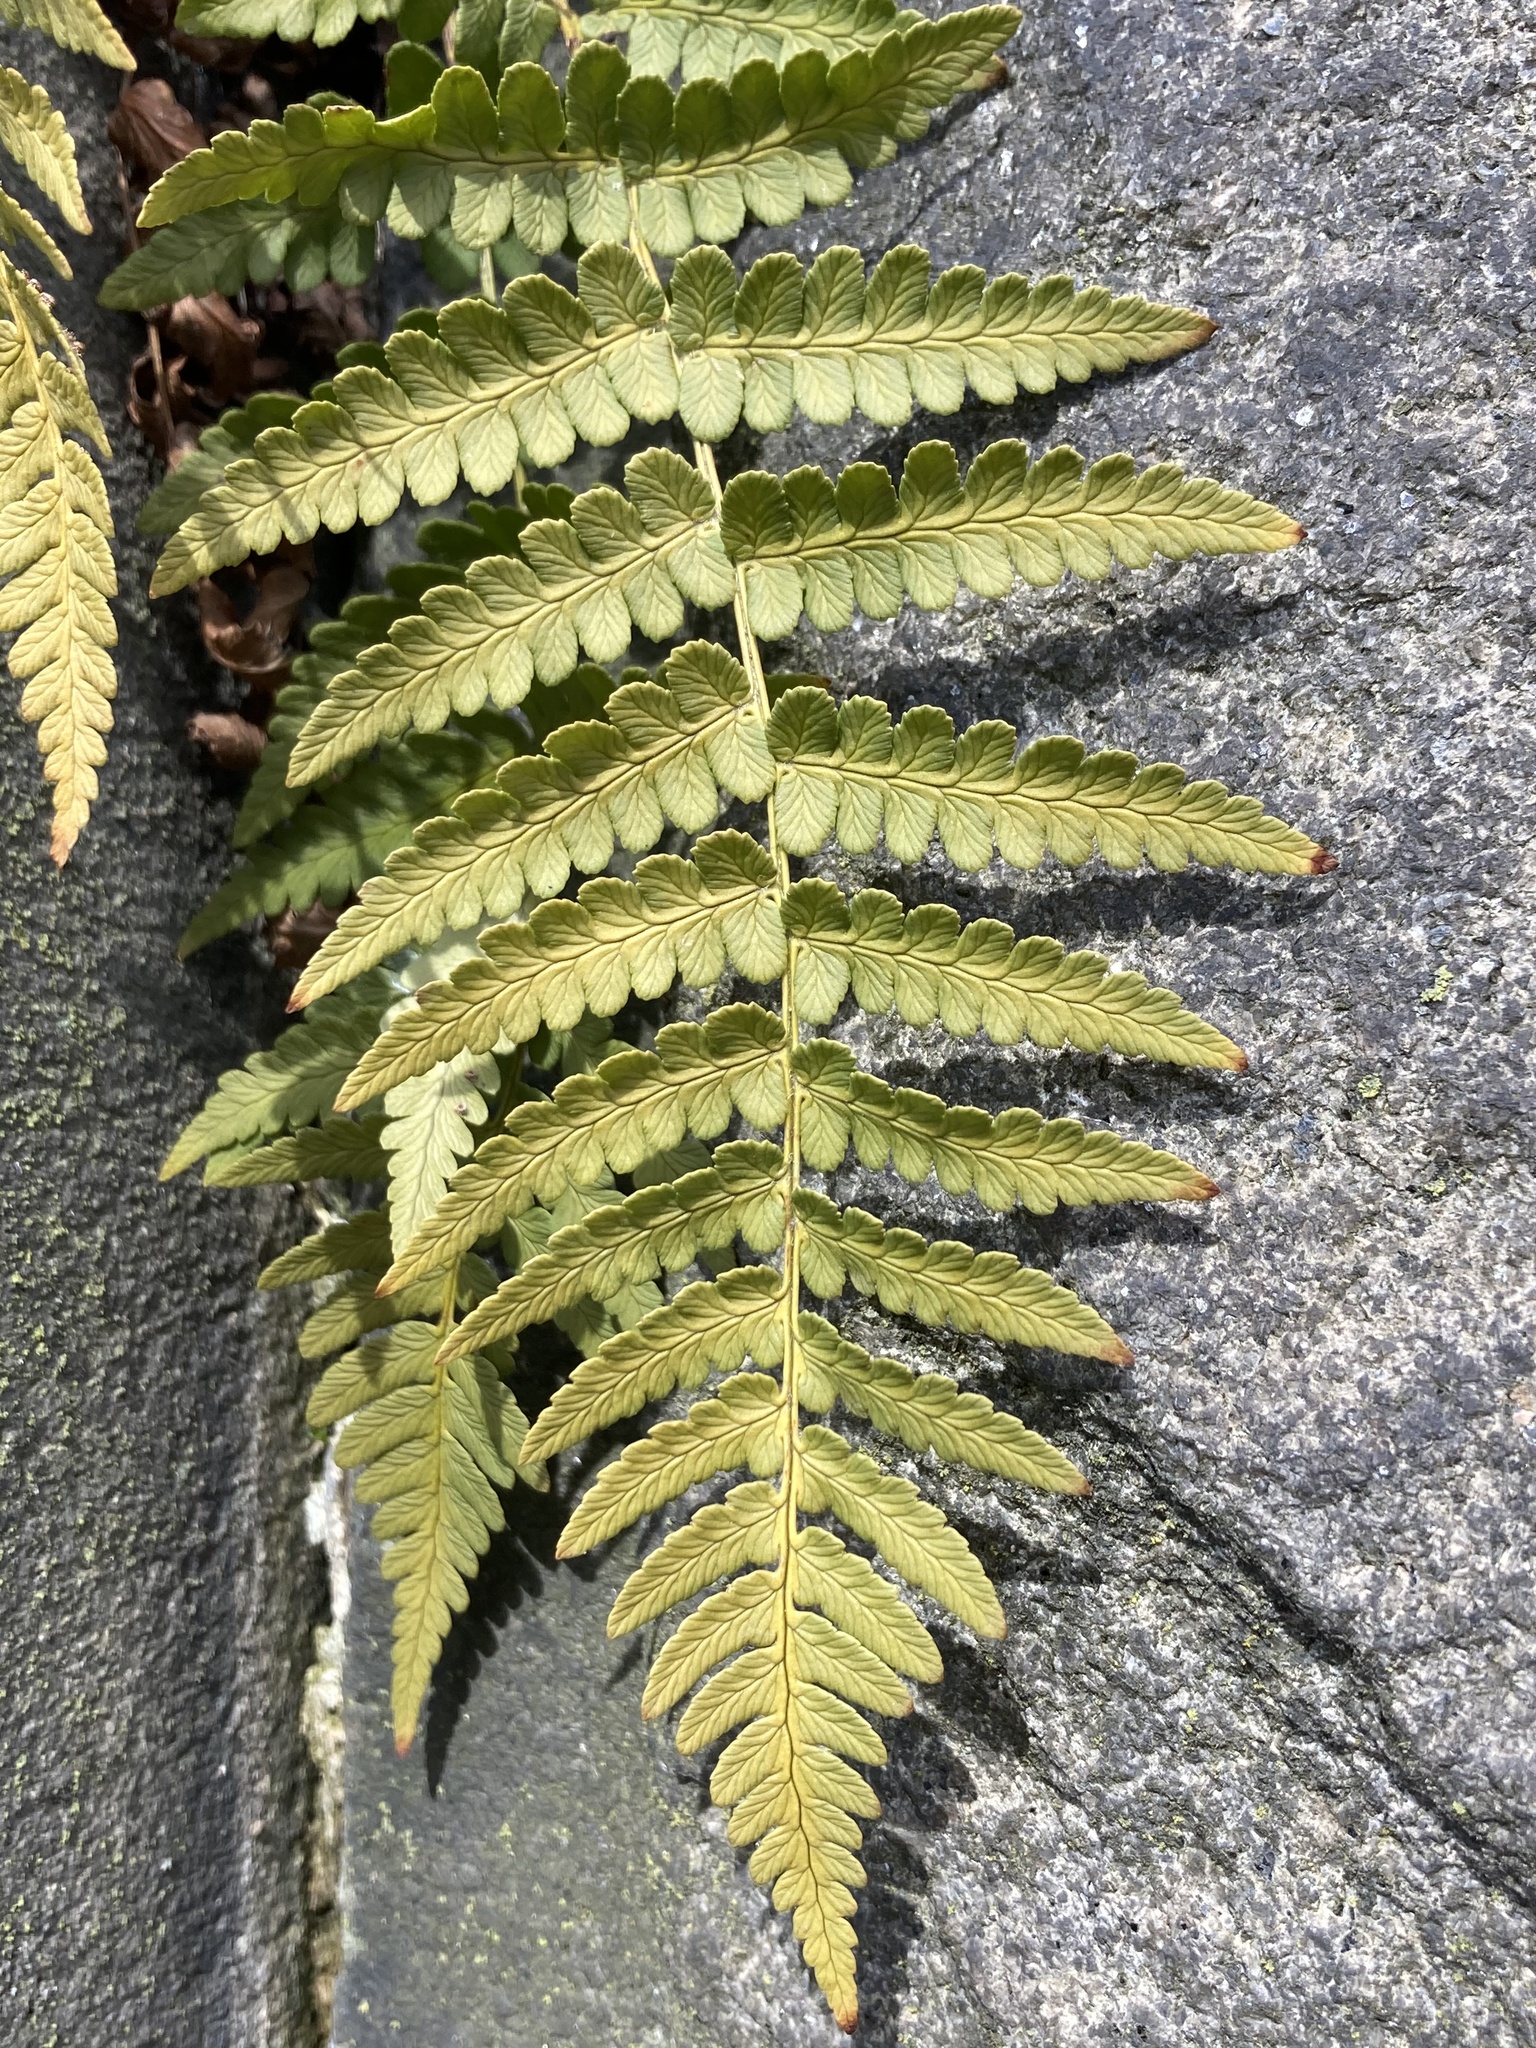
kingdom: Plantae
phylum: Tracheophyta
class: Polypodiopsida
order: Polypodiales
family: Dryopteridaceae
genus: Dryopteris
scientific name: Dryopteris marginalis
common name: Marginal wood fern
